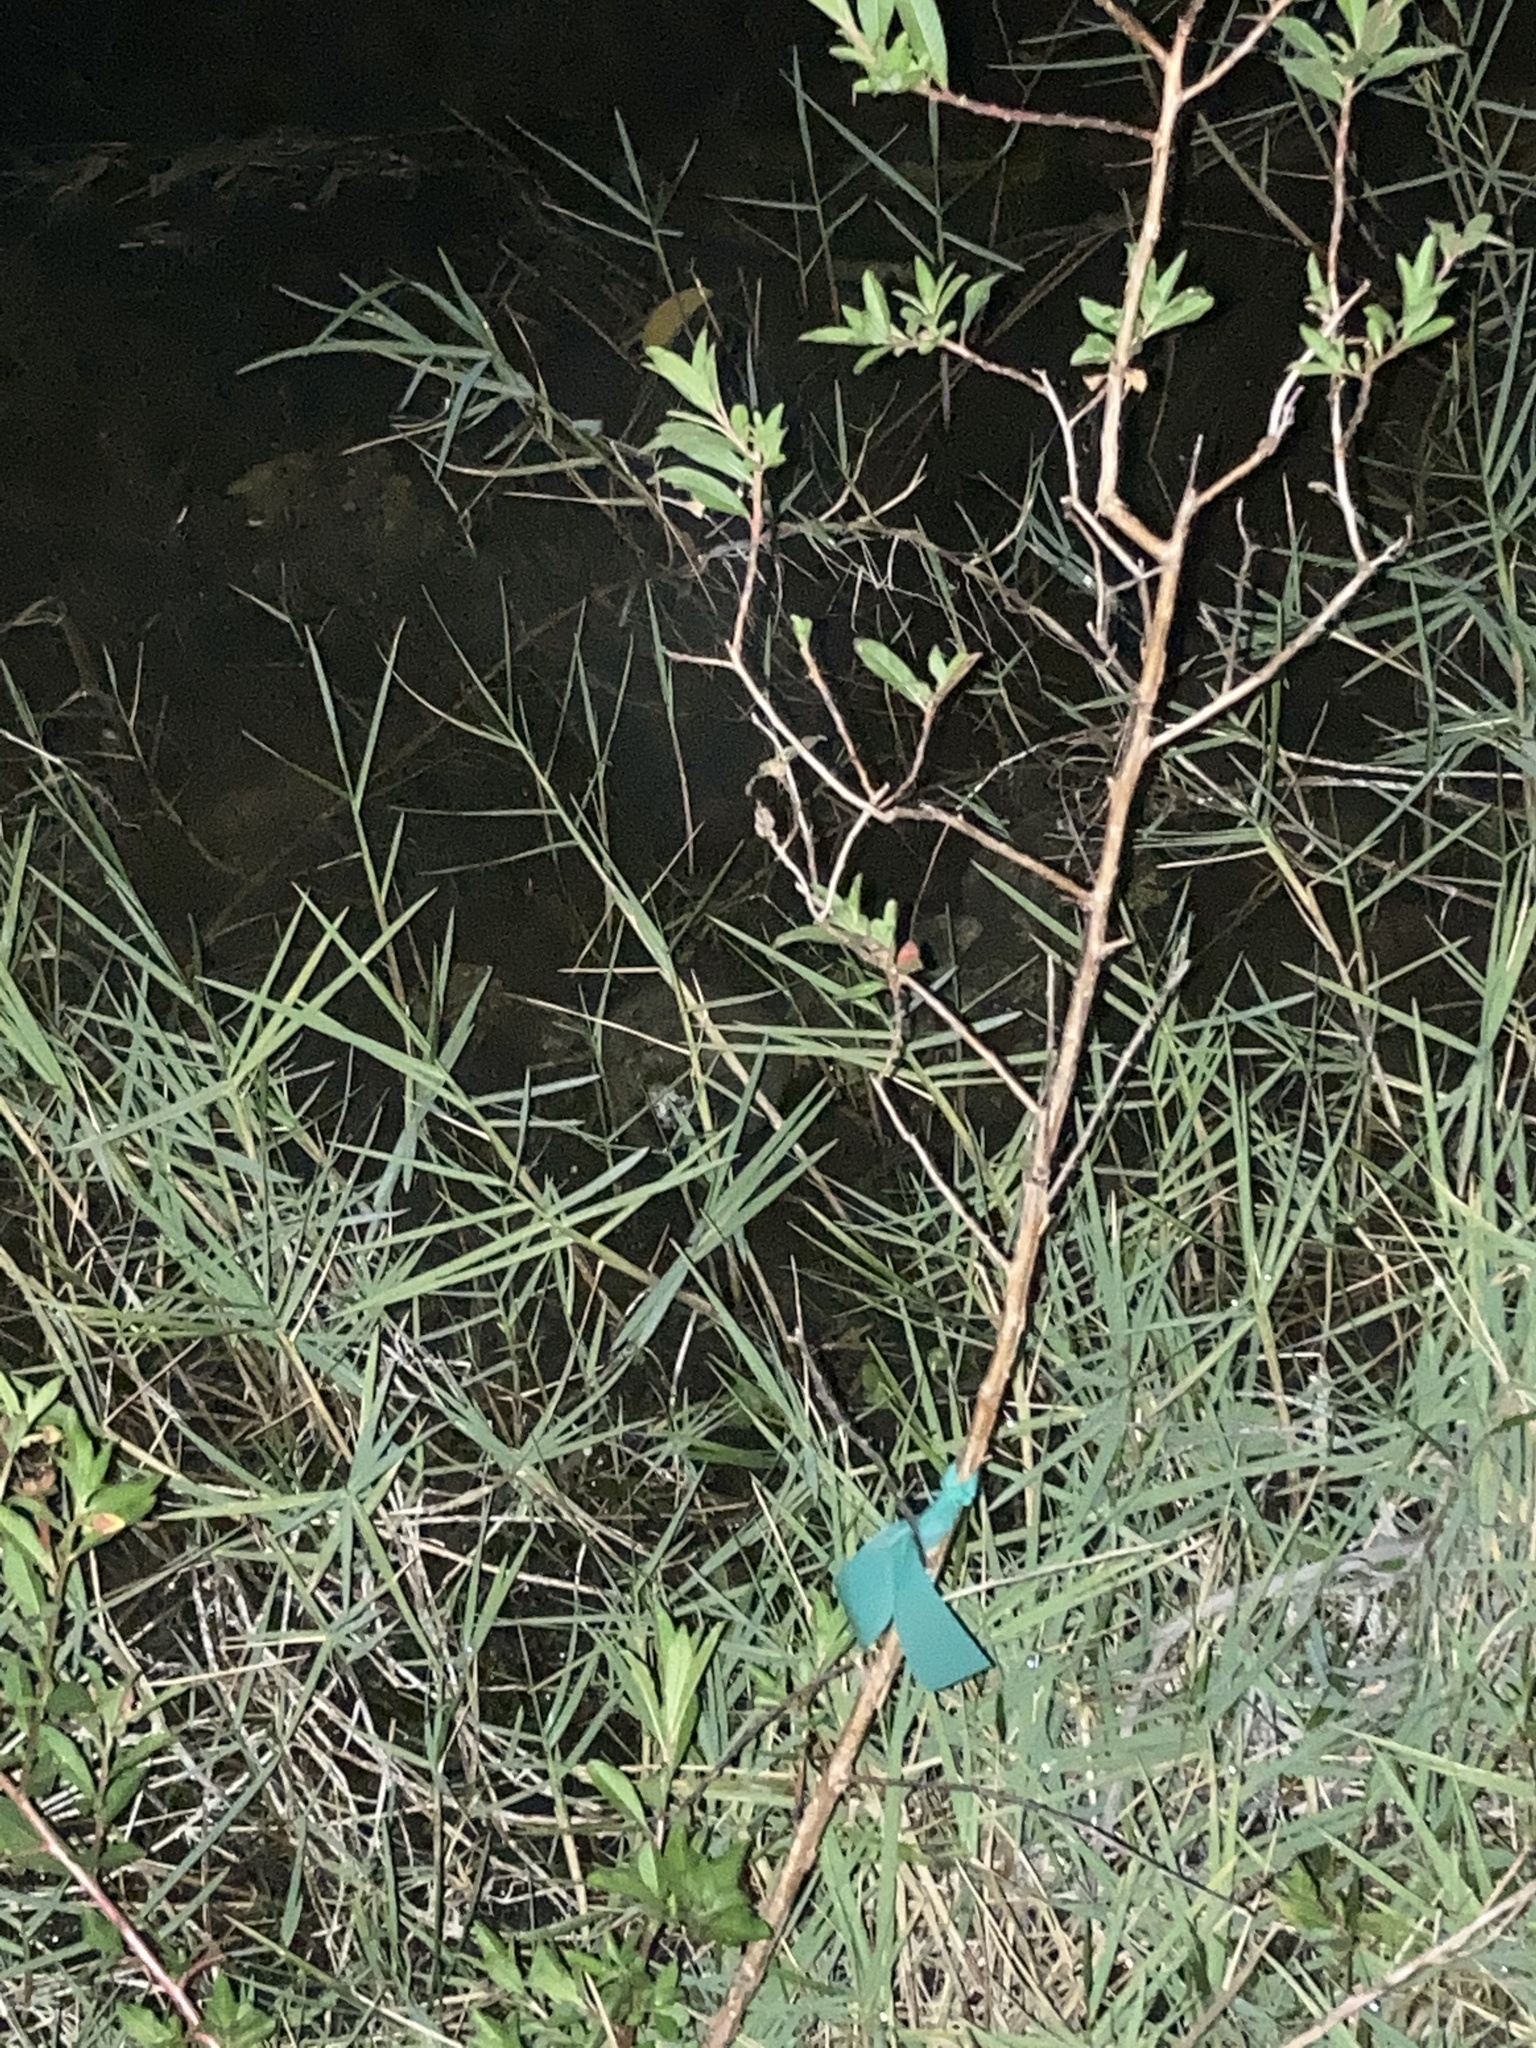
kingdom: Plantae
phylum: Tracheophyta
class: Magnoliopsida
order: Myrtales
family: Onagraceae
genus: Ludwigia
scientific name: Ludwigia octovalvis
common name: Water-primrose
